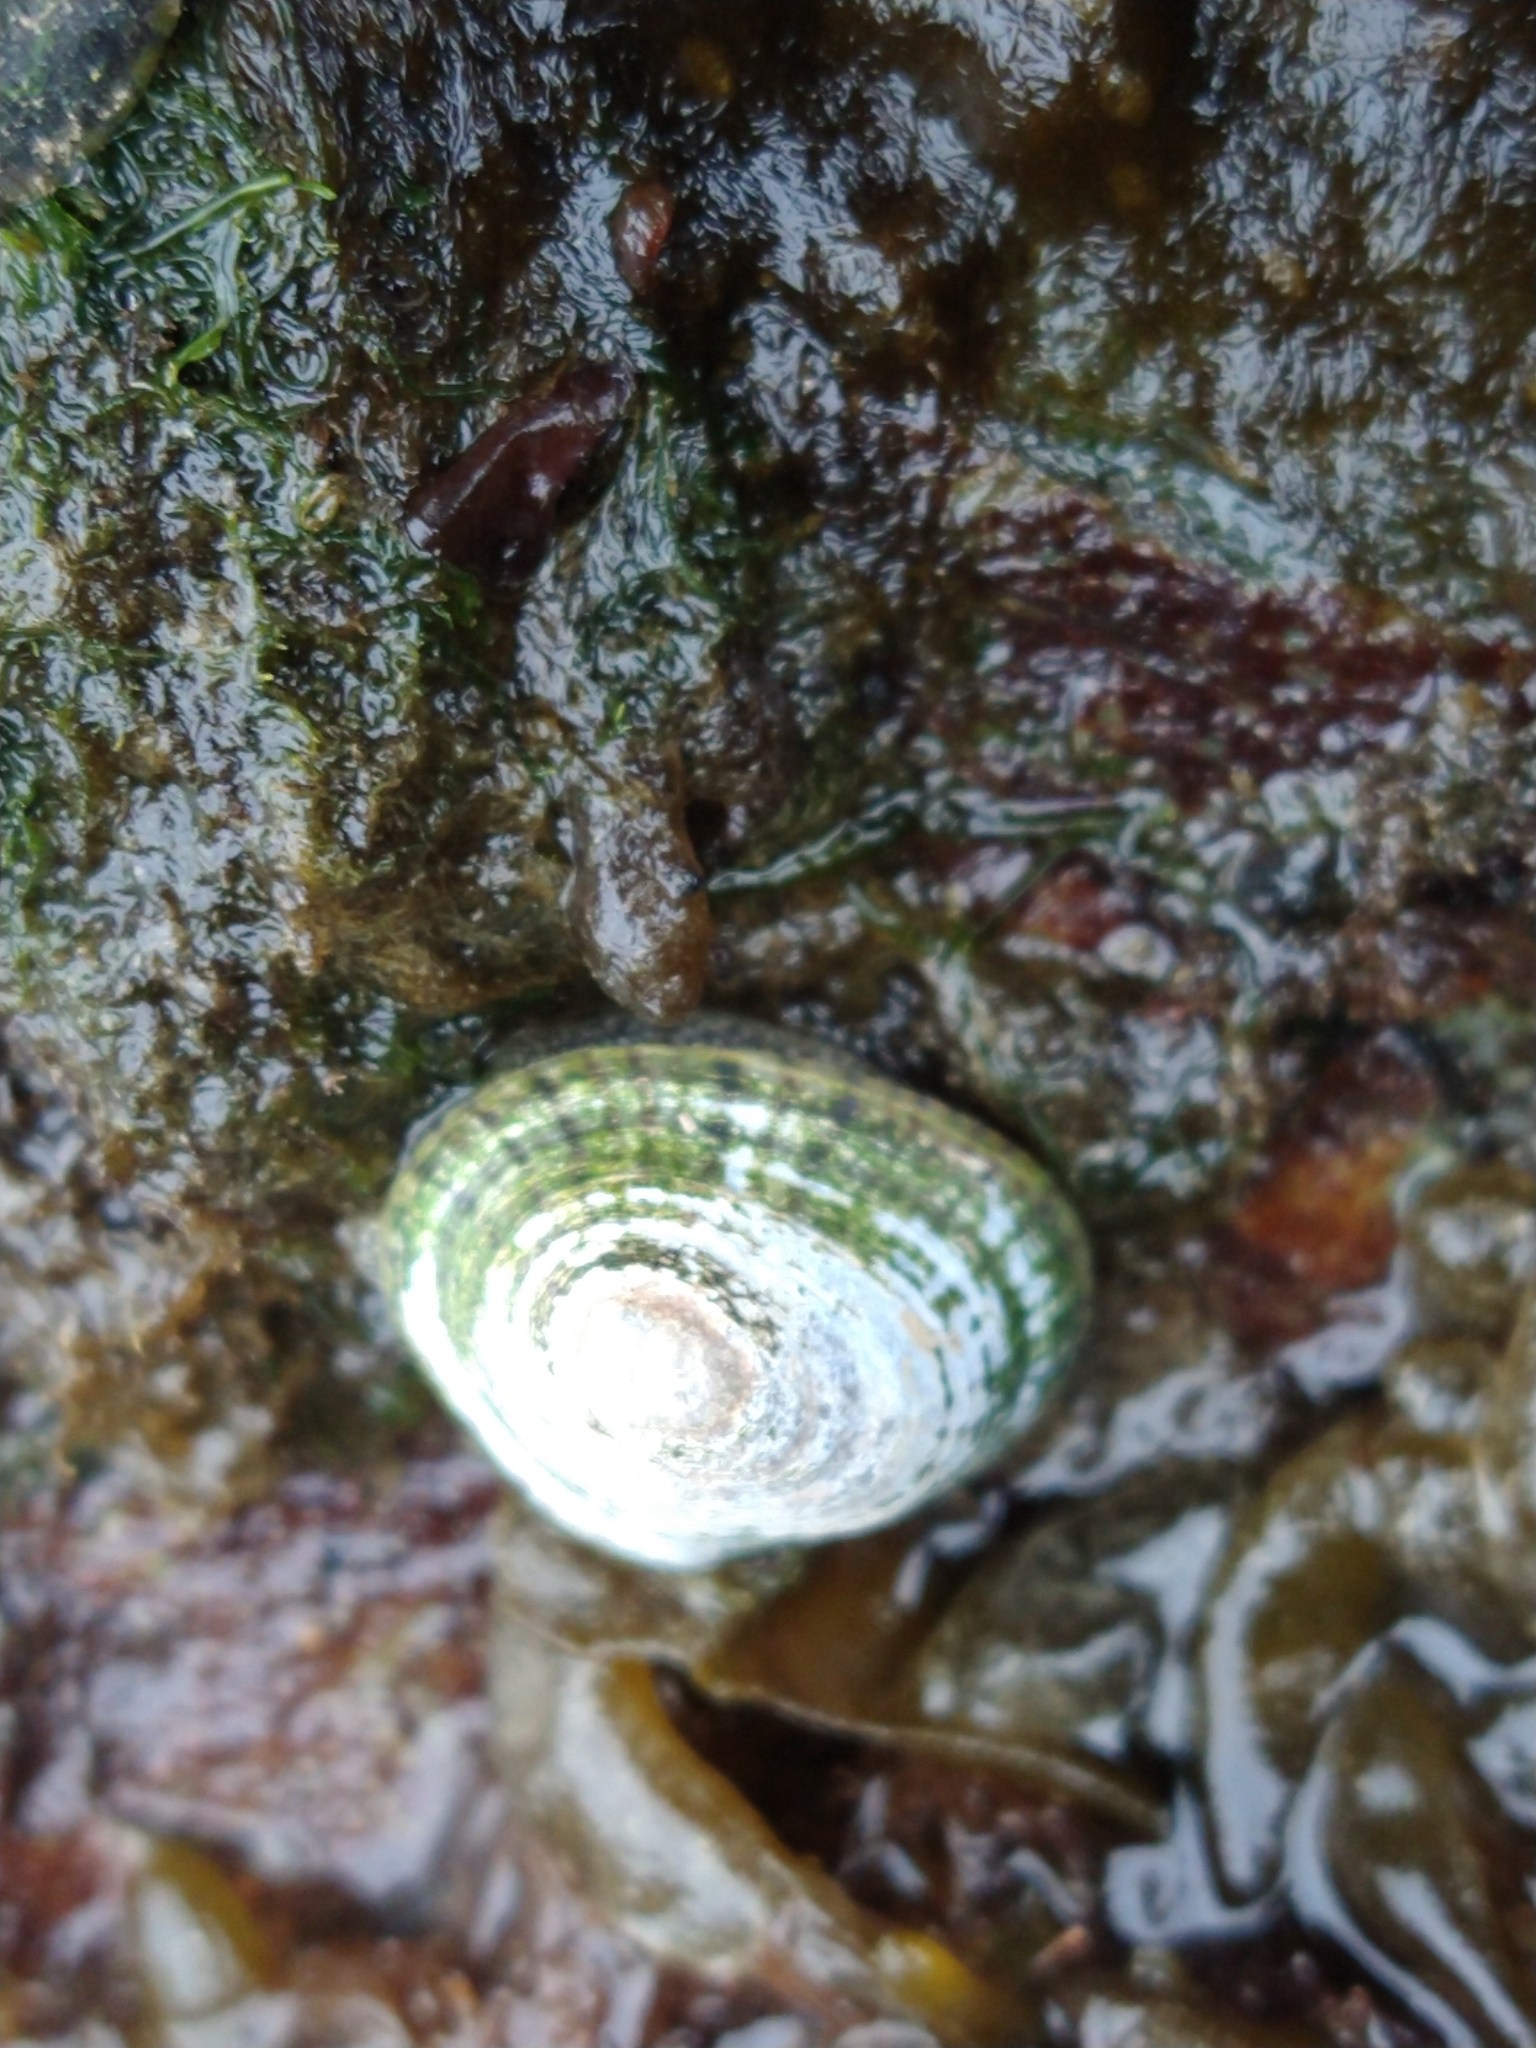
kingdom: Animalia
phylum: Mollusca
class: Gastropoda
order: Siphonariida
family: Siphonariidae
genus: Siphonaria
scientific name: Siphonaria lessonii
